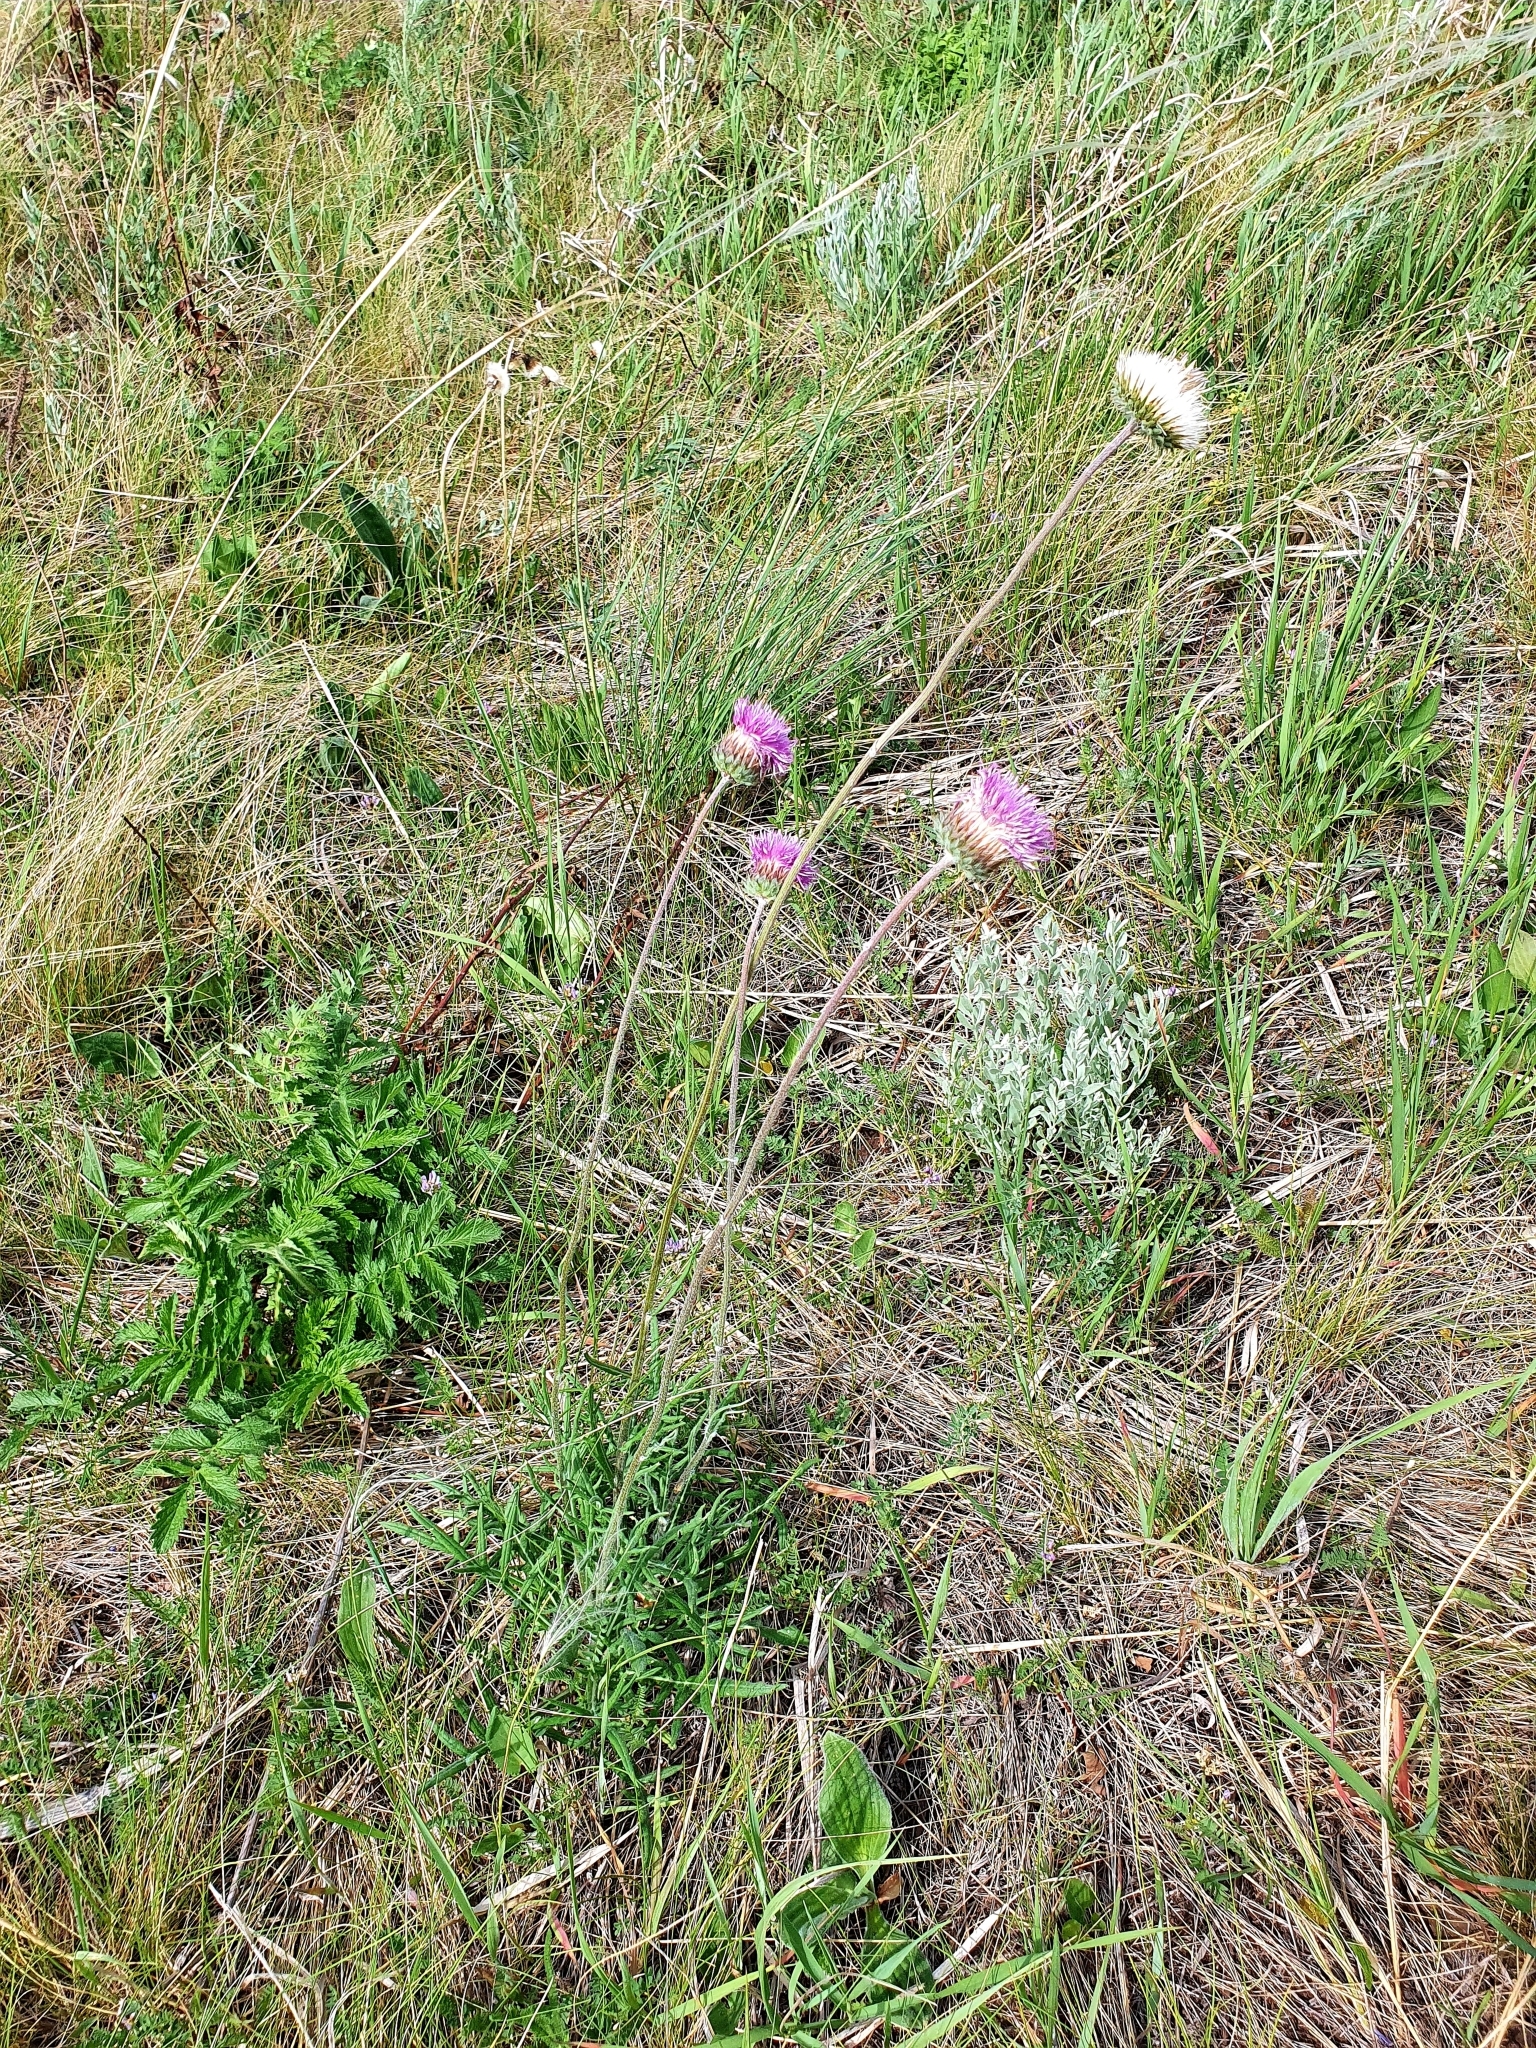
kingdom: Plantae
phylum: Tracheophyta
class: Magnoliopsida
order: Asterales
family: Asteraceae
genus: Jurinea
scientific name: Jurinea ledebourii
